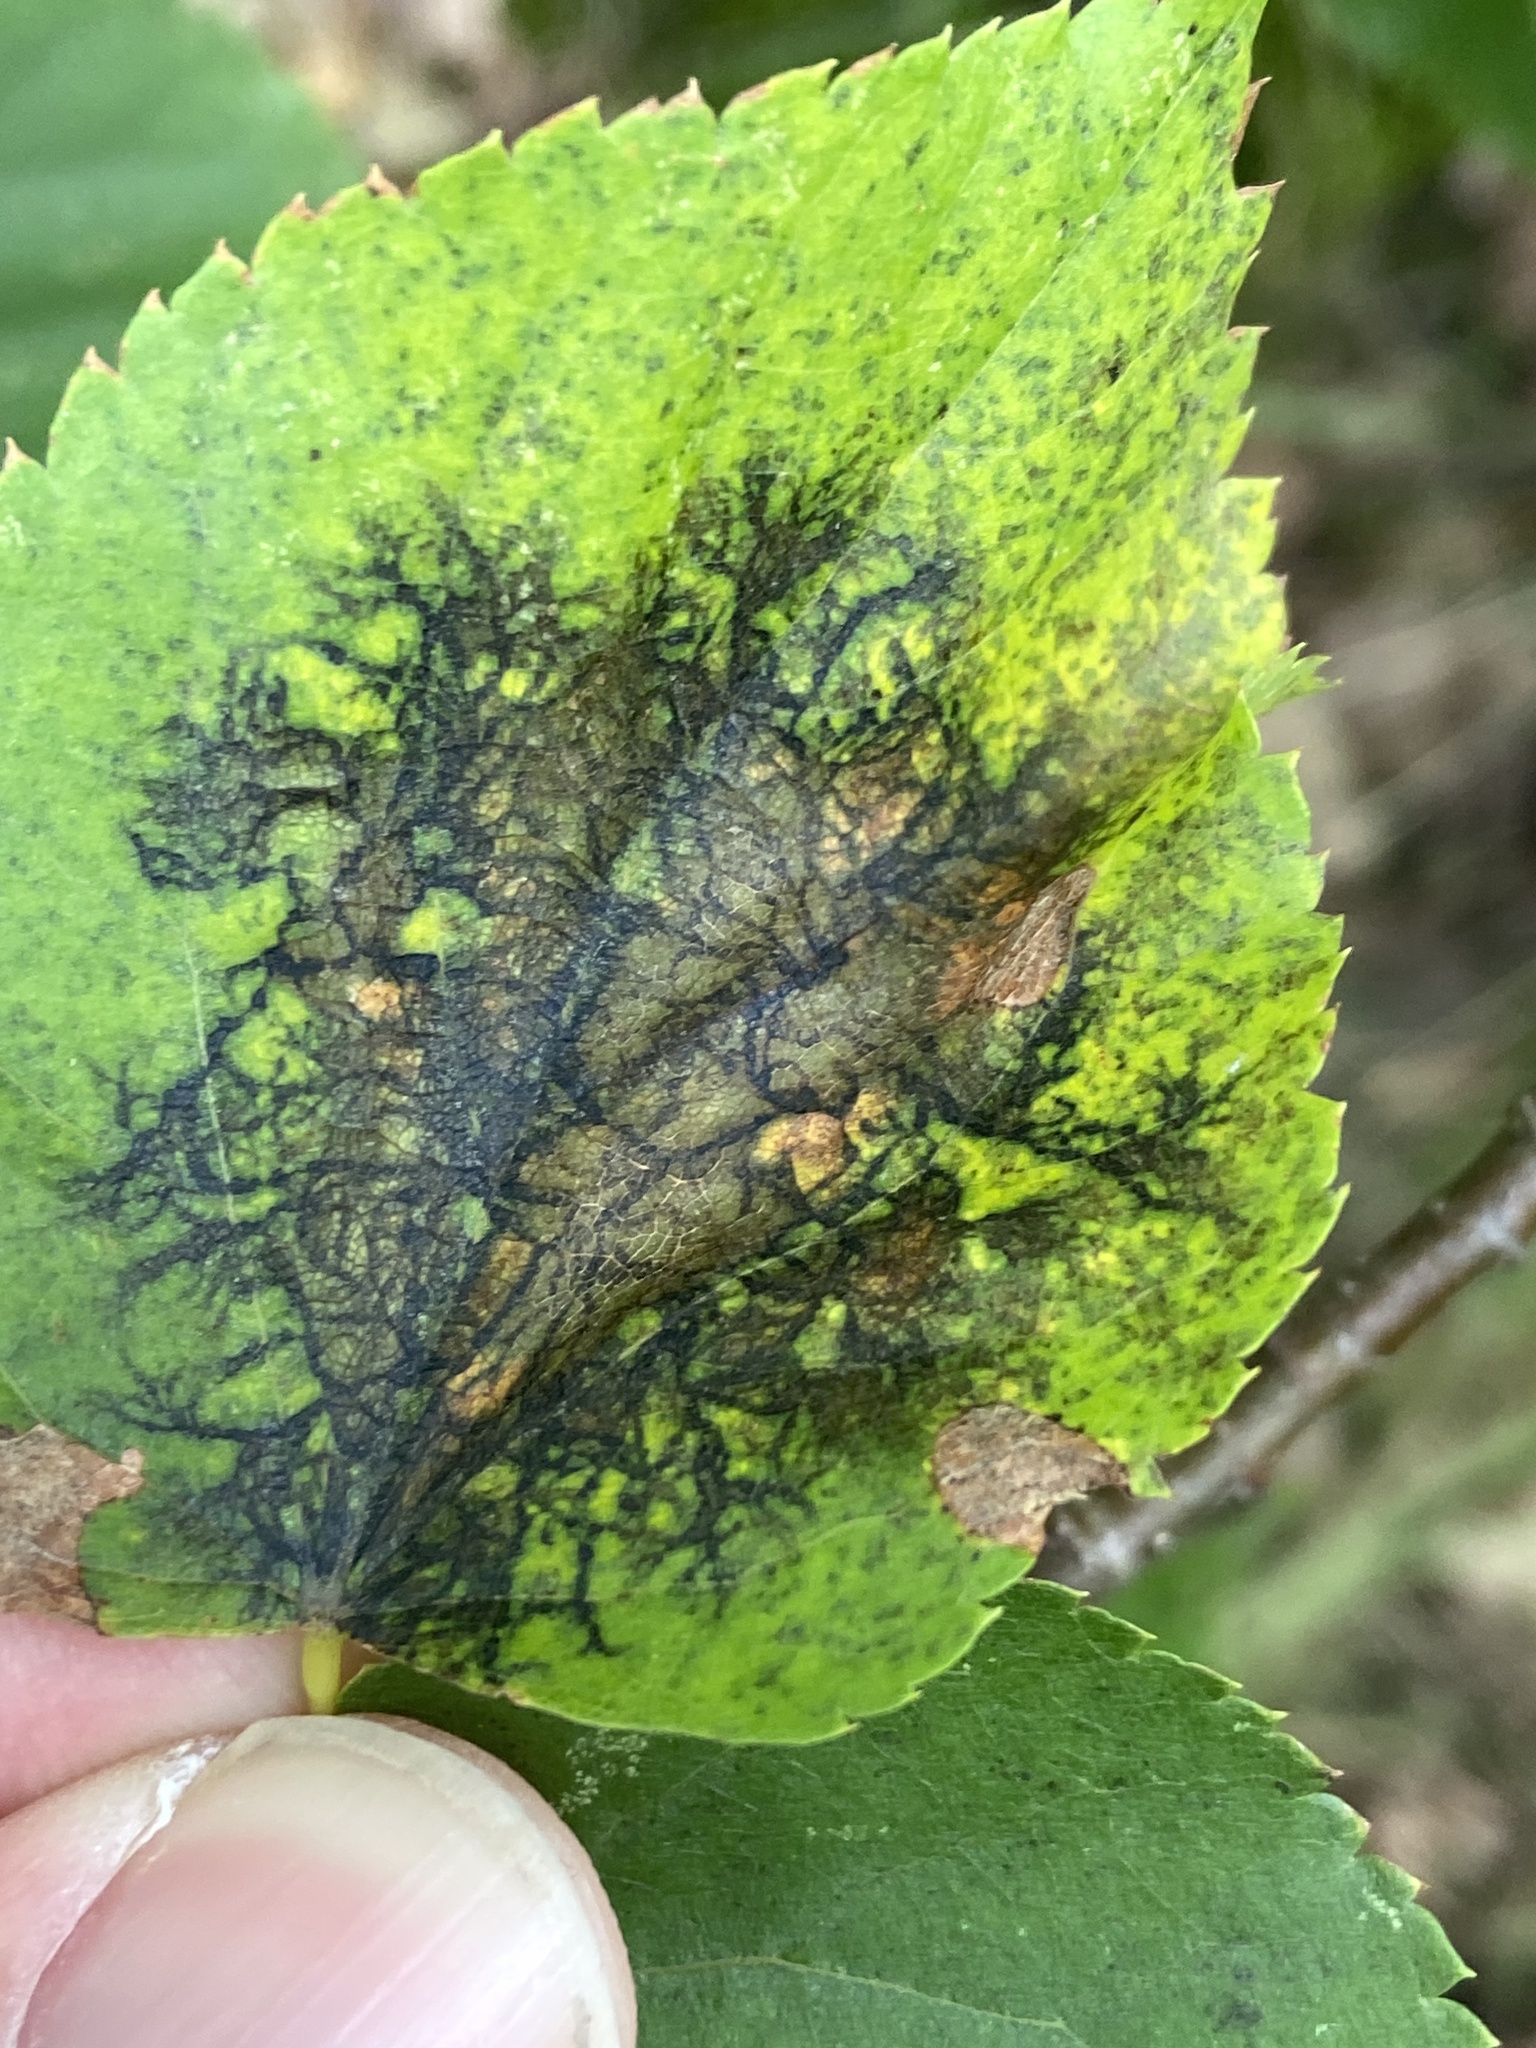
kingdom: Fungi
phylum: Ascomycota
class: Dothideomycetes
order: Pleosporales
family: Didymosphaeriaceae
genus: Paraconiothyrium
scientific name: Paraconiothyrium tiliae
